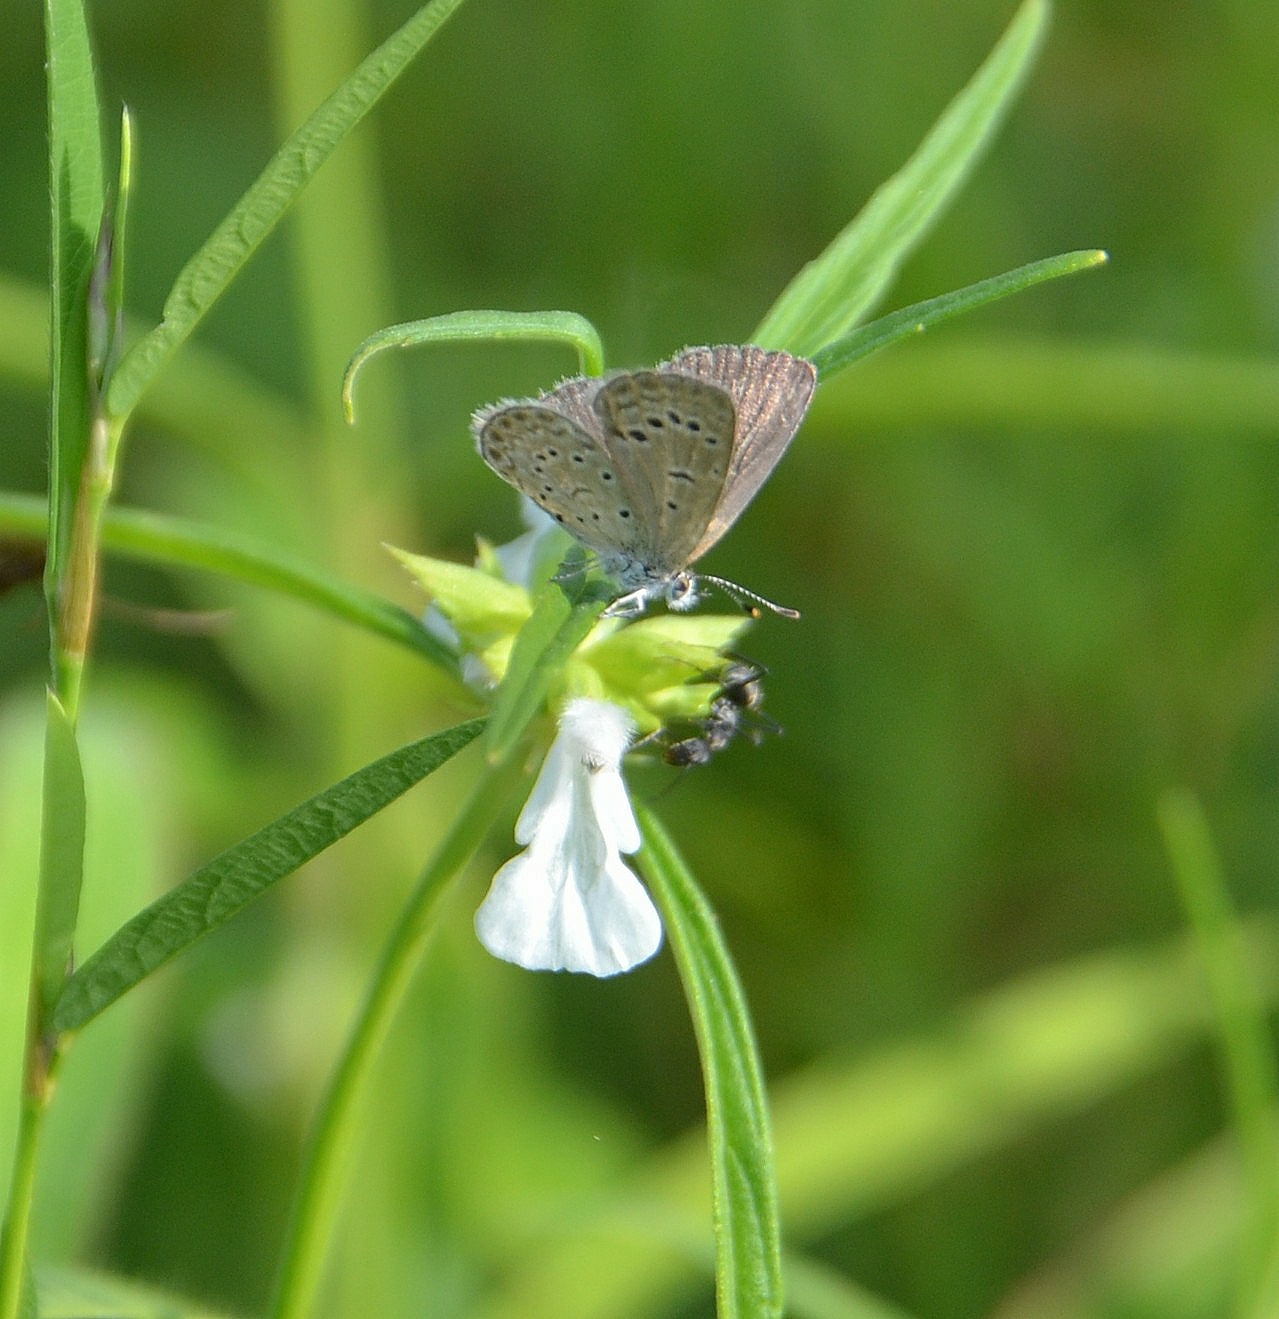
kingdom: Animalia
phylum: Arthropoda
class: Insecta
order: Lepidoptera
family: Lycaenidae
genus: Zizeeria
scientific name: Zizeeria karsandra
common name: Dark grass blue
